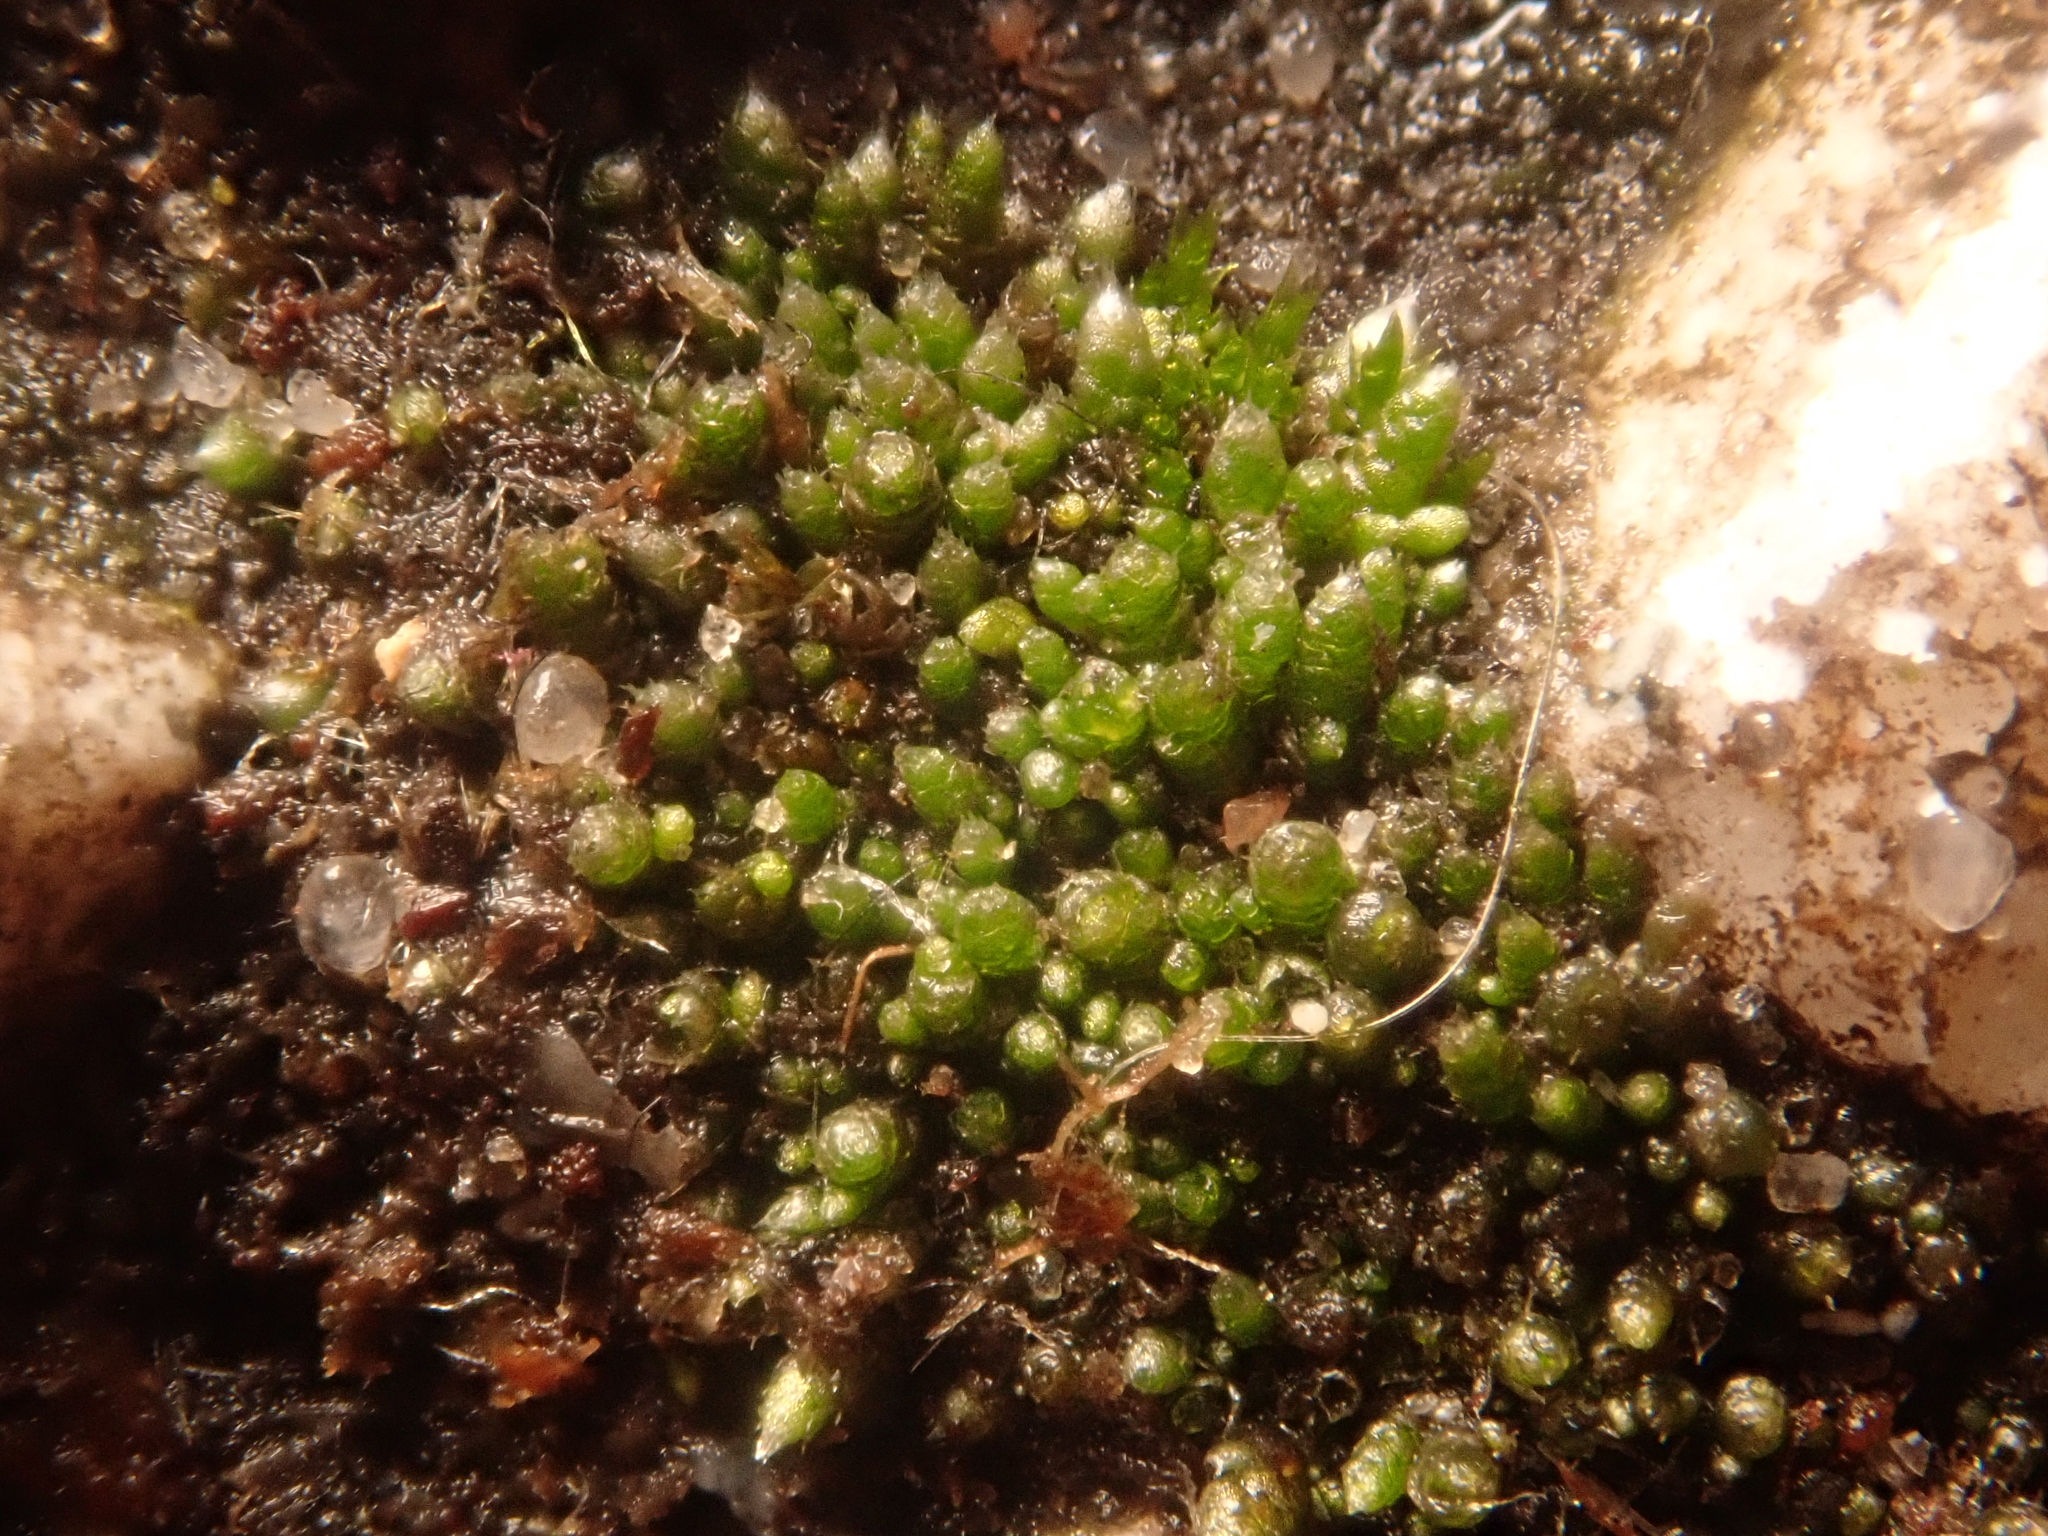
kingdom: Plantae
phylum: Bryophyta
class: Bryopsida
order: Bryales
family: Bryaceae
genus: Bryum
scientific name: Bryum argenteum
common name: Silver-moss
